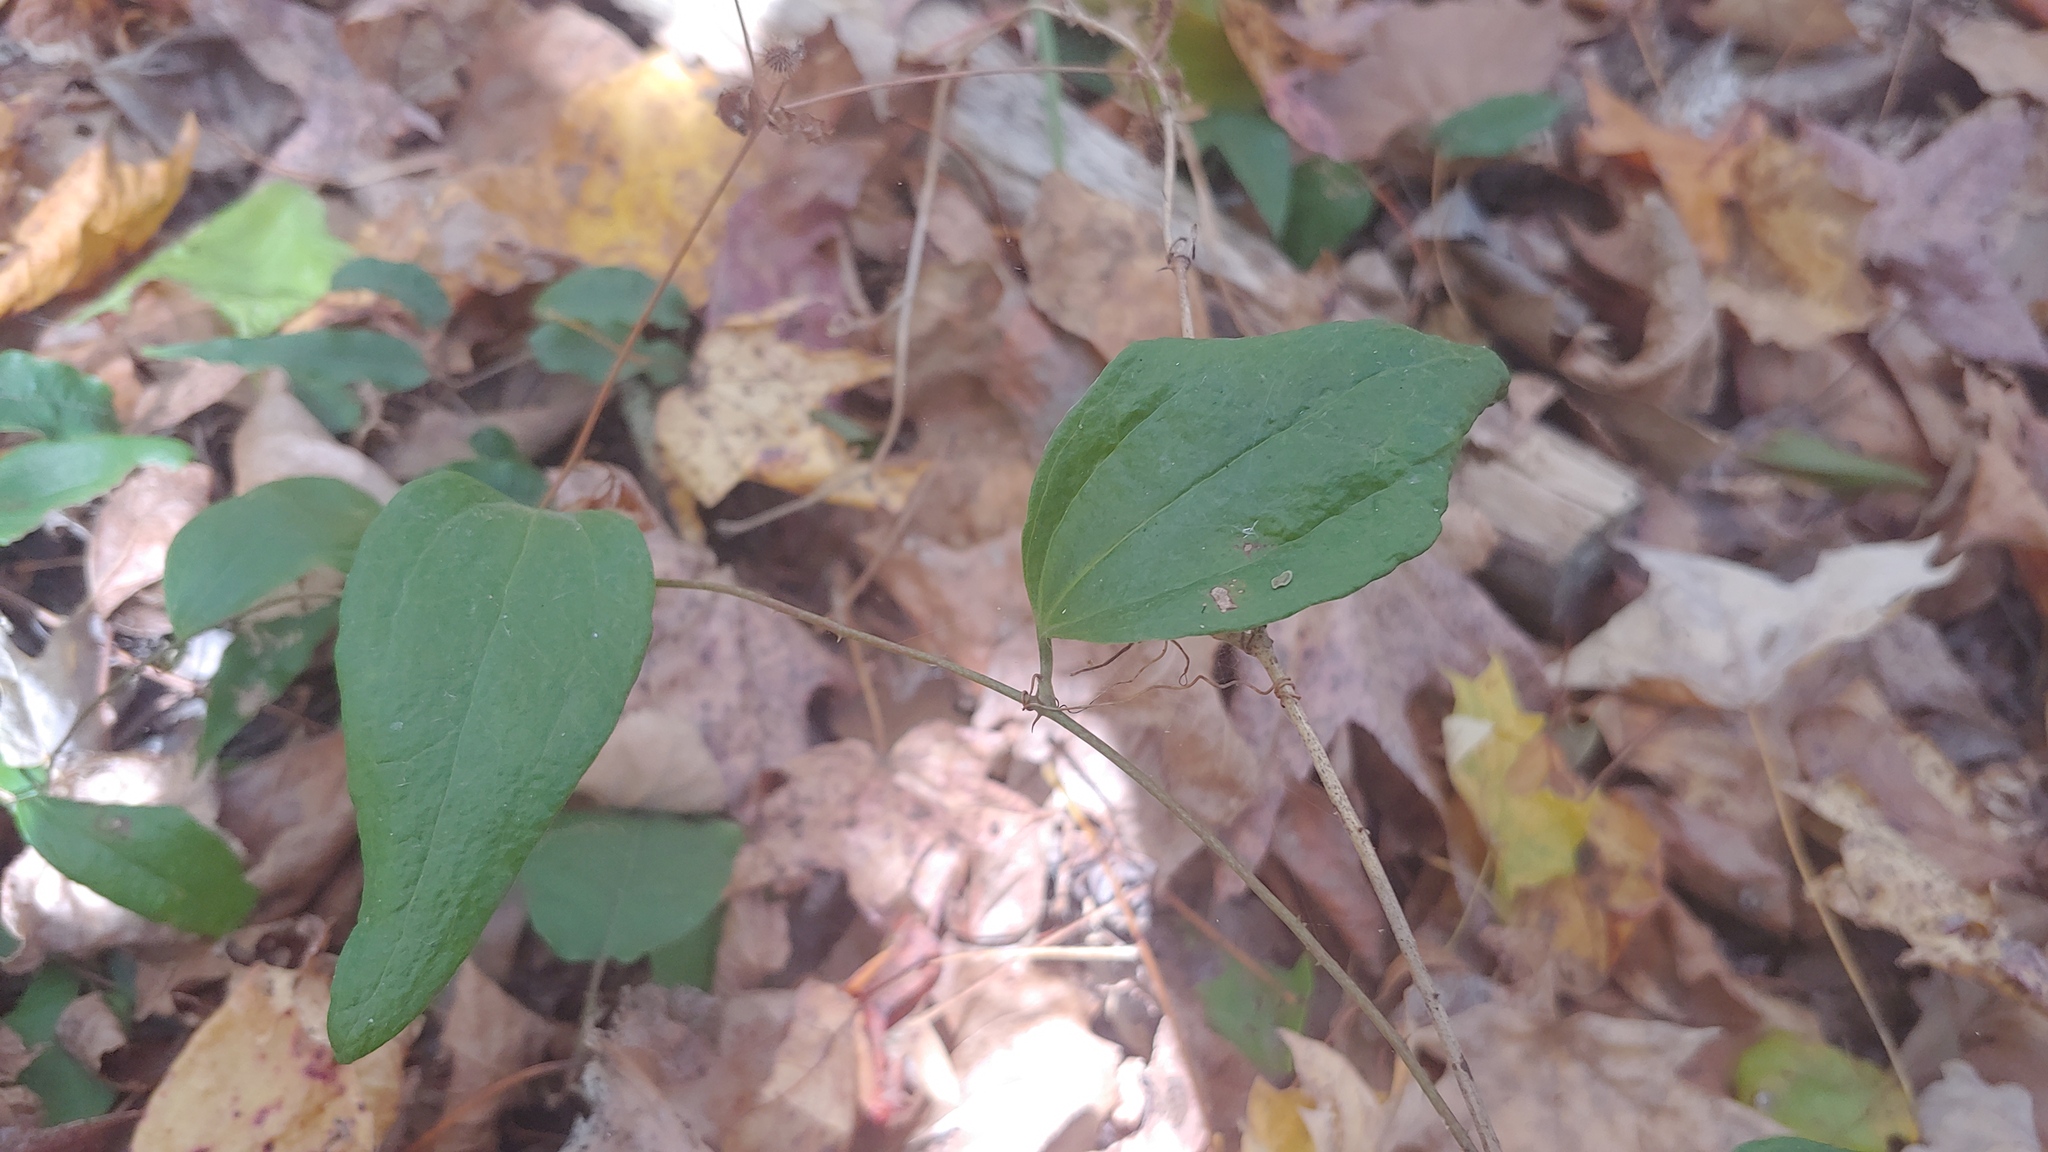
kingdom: Plantae
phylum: Tracheophyta
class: Liliopsida
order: Liliales
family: Smilacaceae
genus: Smilax
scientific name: Smilax glauca
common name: Cat greenbrier
